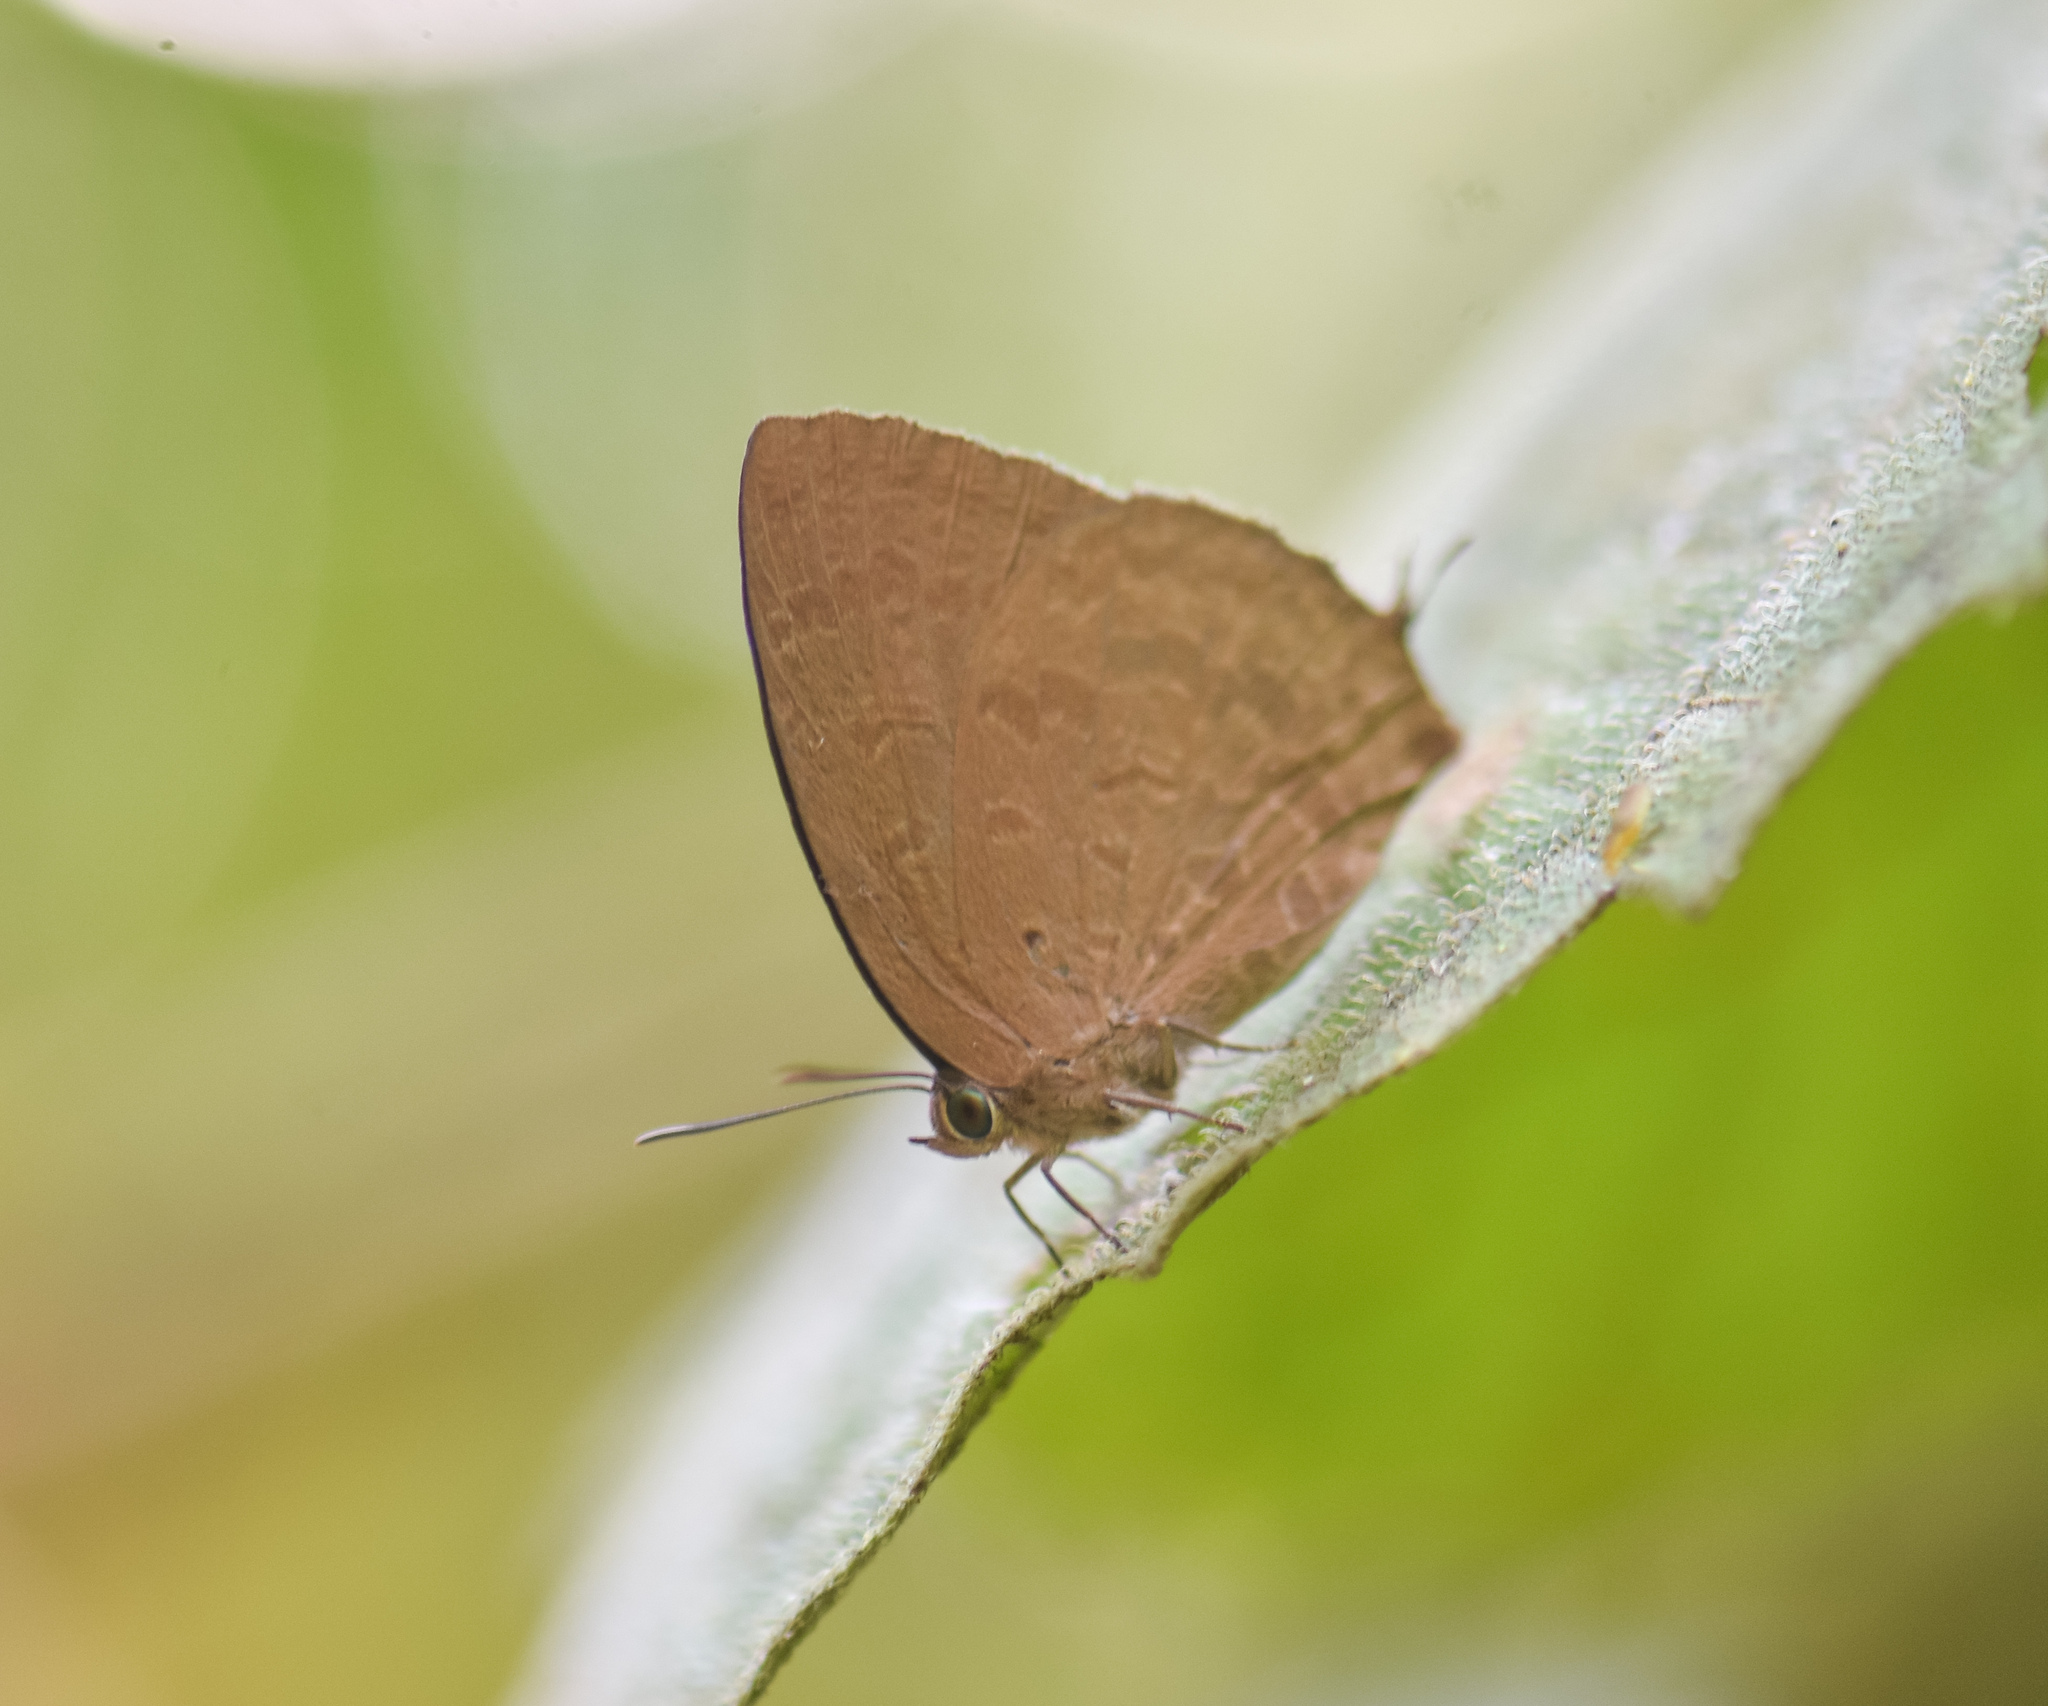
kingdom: Animalia
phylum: Arthropoda
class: Insecta
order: Lepidoptera
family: Lycaenidae
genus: Arhopala
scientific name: Arhopala oenea
